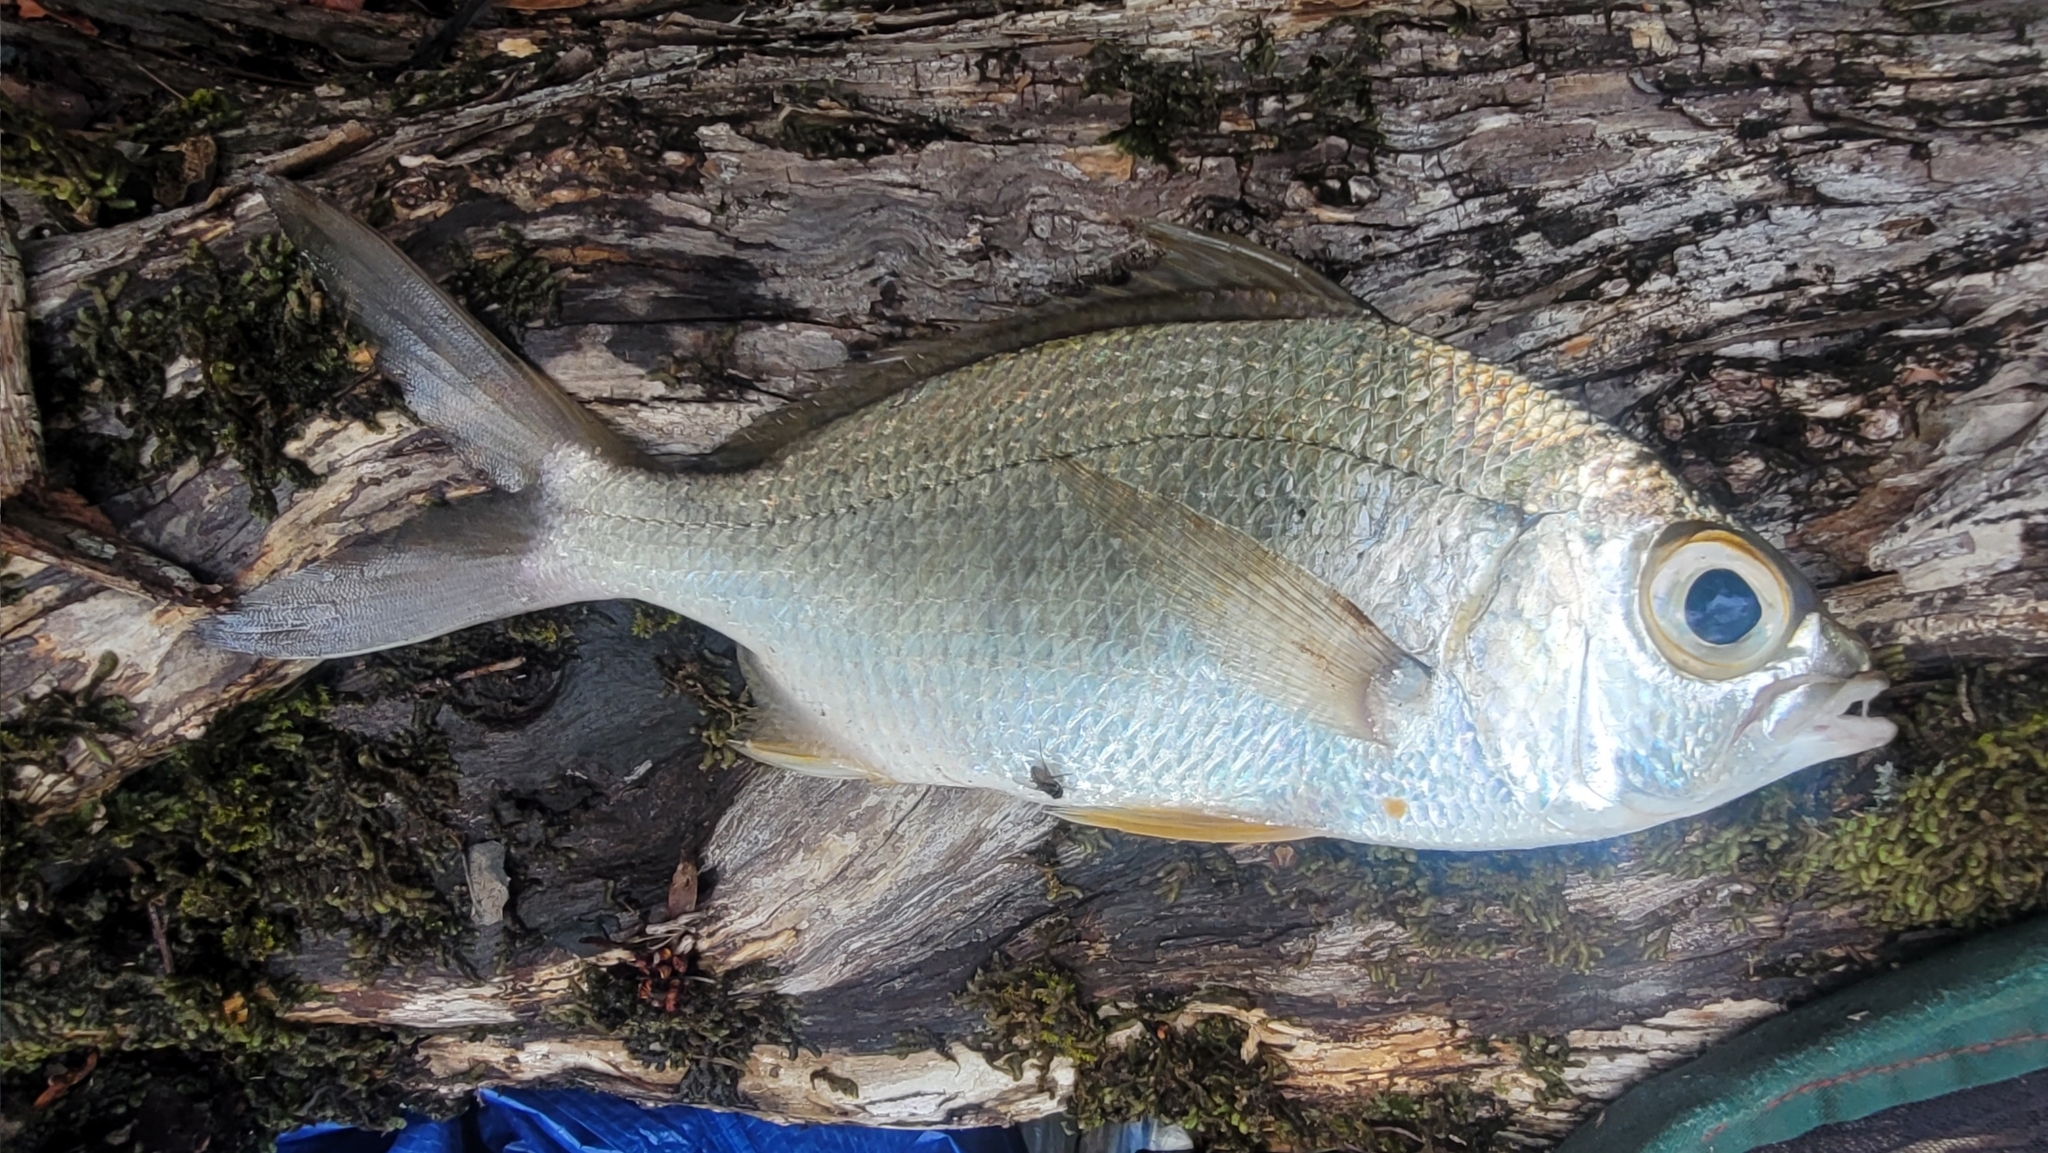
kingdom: Animalia
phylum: Chordata
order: Perciformes
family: Gerreidae
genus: Gerres
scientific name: Gerres cinereus
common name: Hedow
